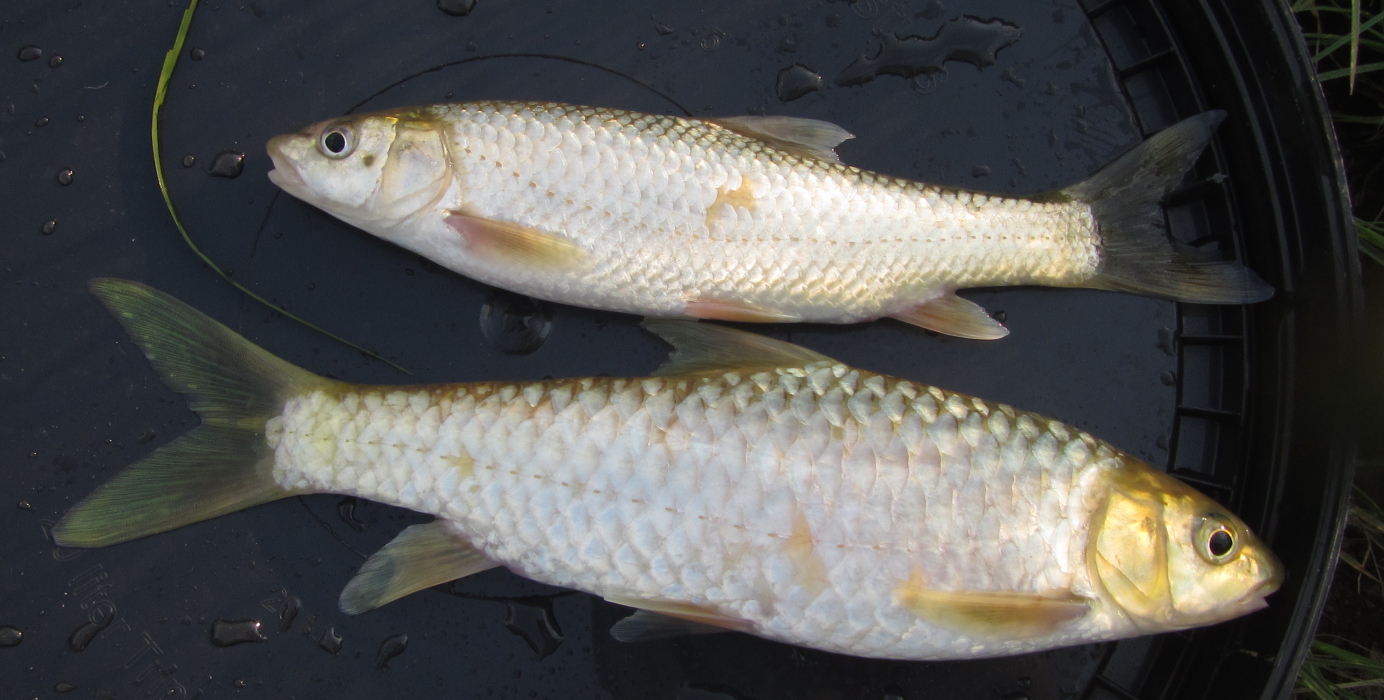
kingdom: Animalia
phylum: Chordata
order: Cypriniformes
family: Cyprinidae
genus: Labeobarbus
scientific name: Labeobarbus polylepis
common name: Bushveld smallscale yellowfish
